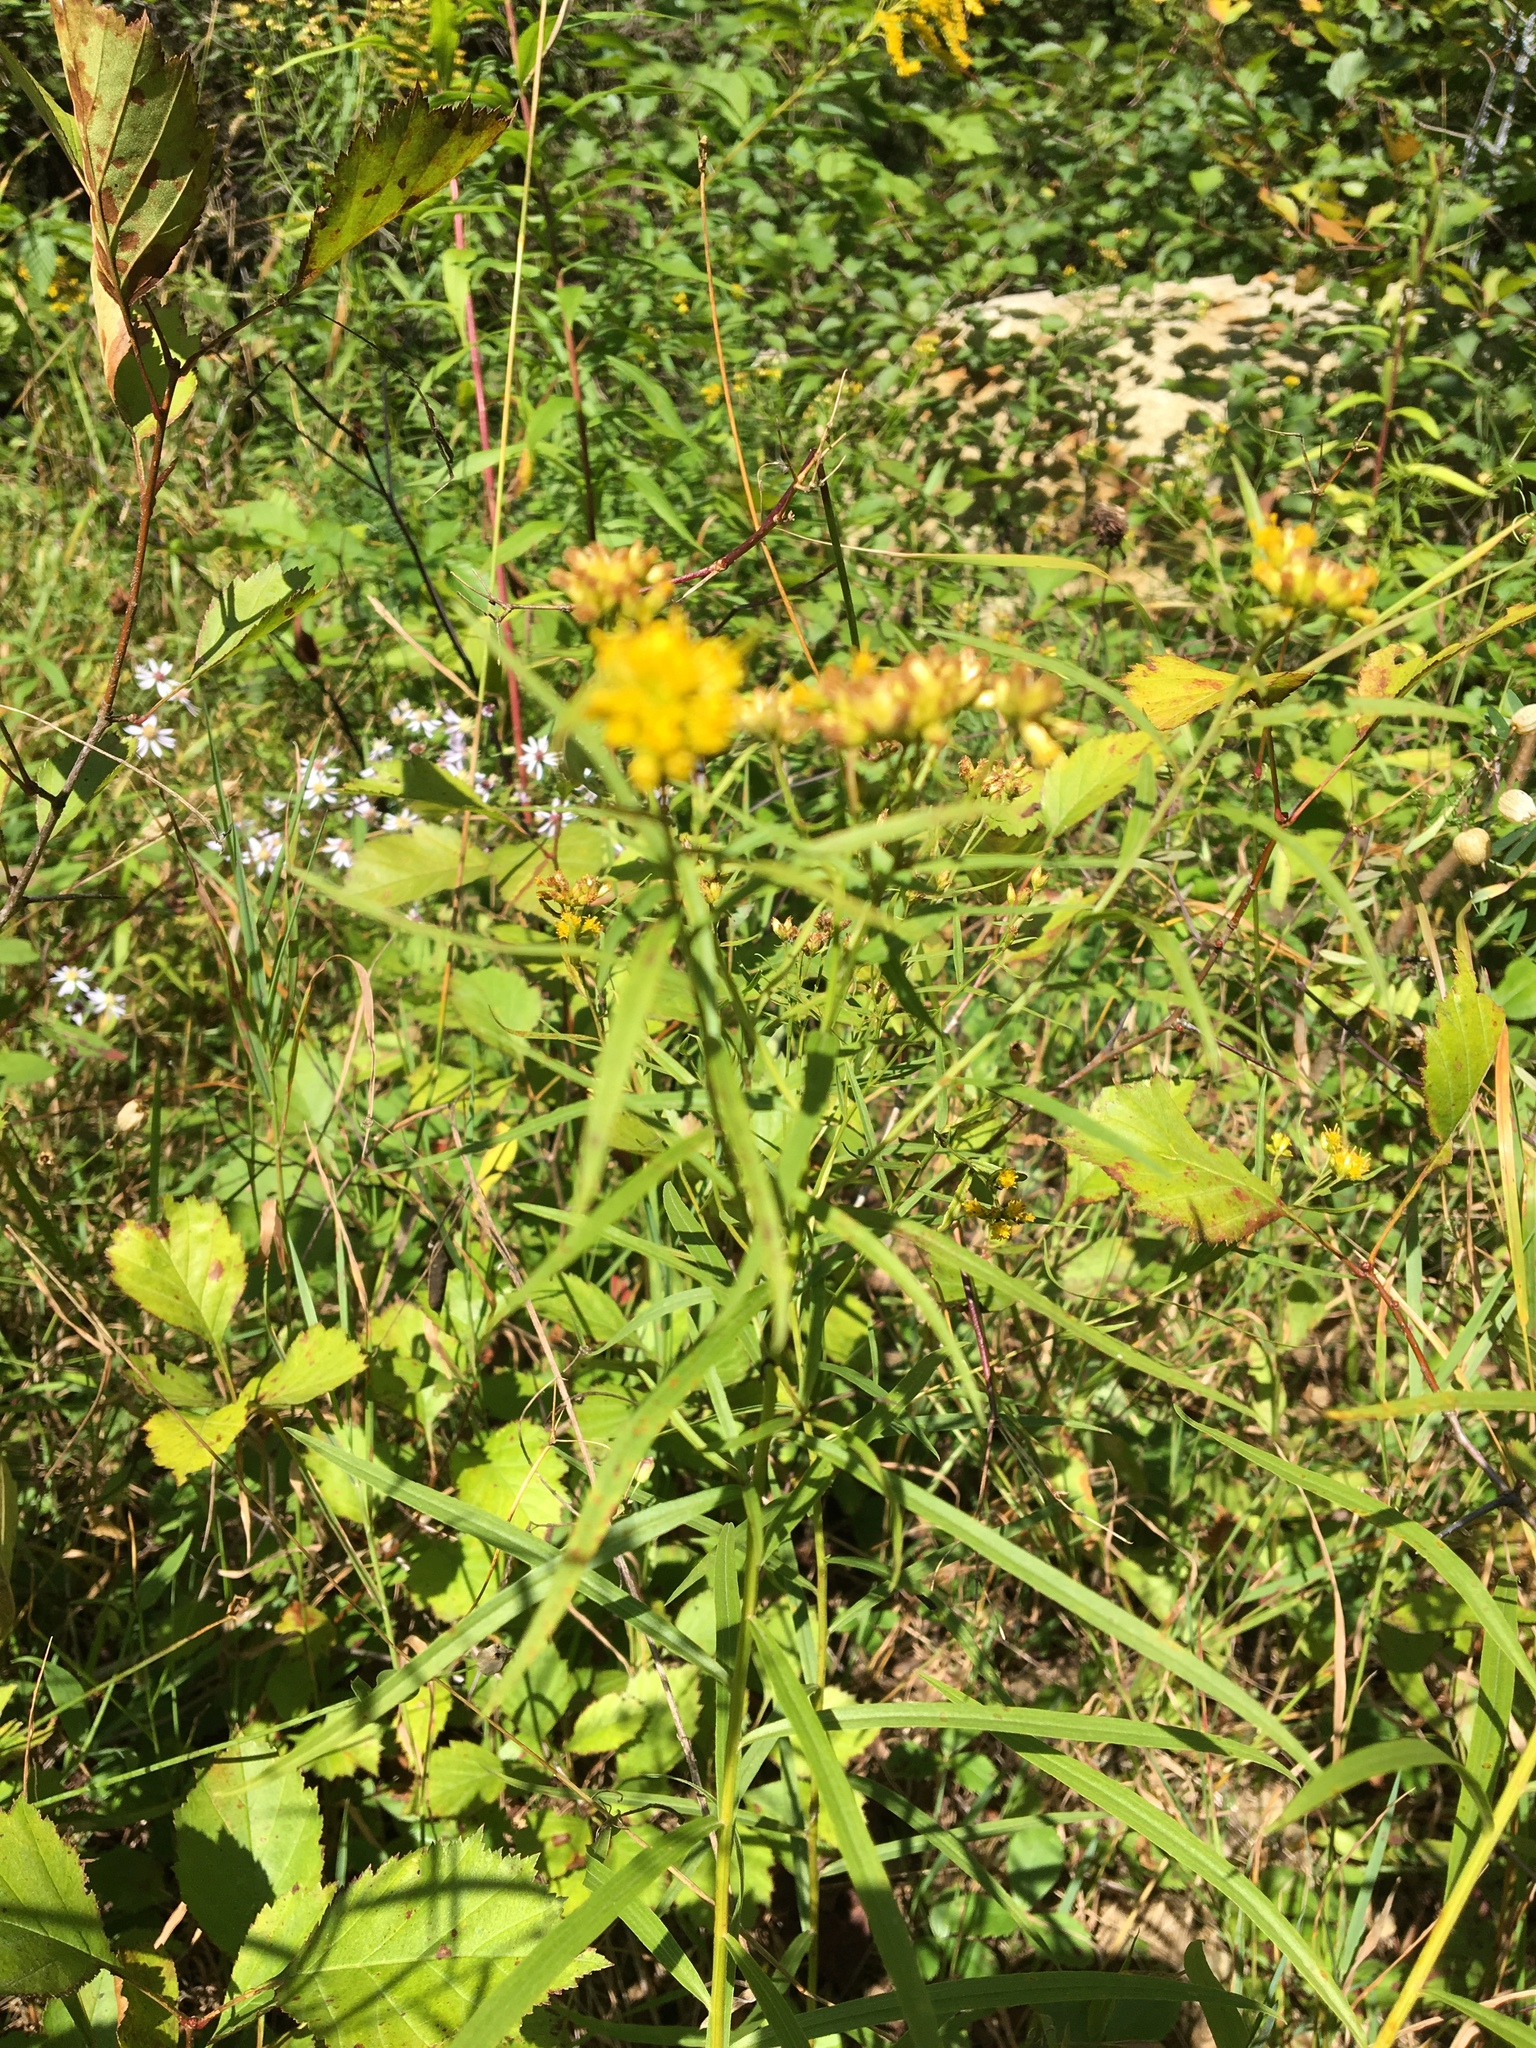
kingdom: Plantae
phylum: Tracheophyta
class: Magnoliopsida
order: Asterales
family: Asteraceae
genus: Euthamia
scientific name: Euthamia graminifolia
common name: Common goldentop
